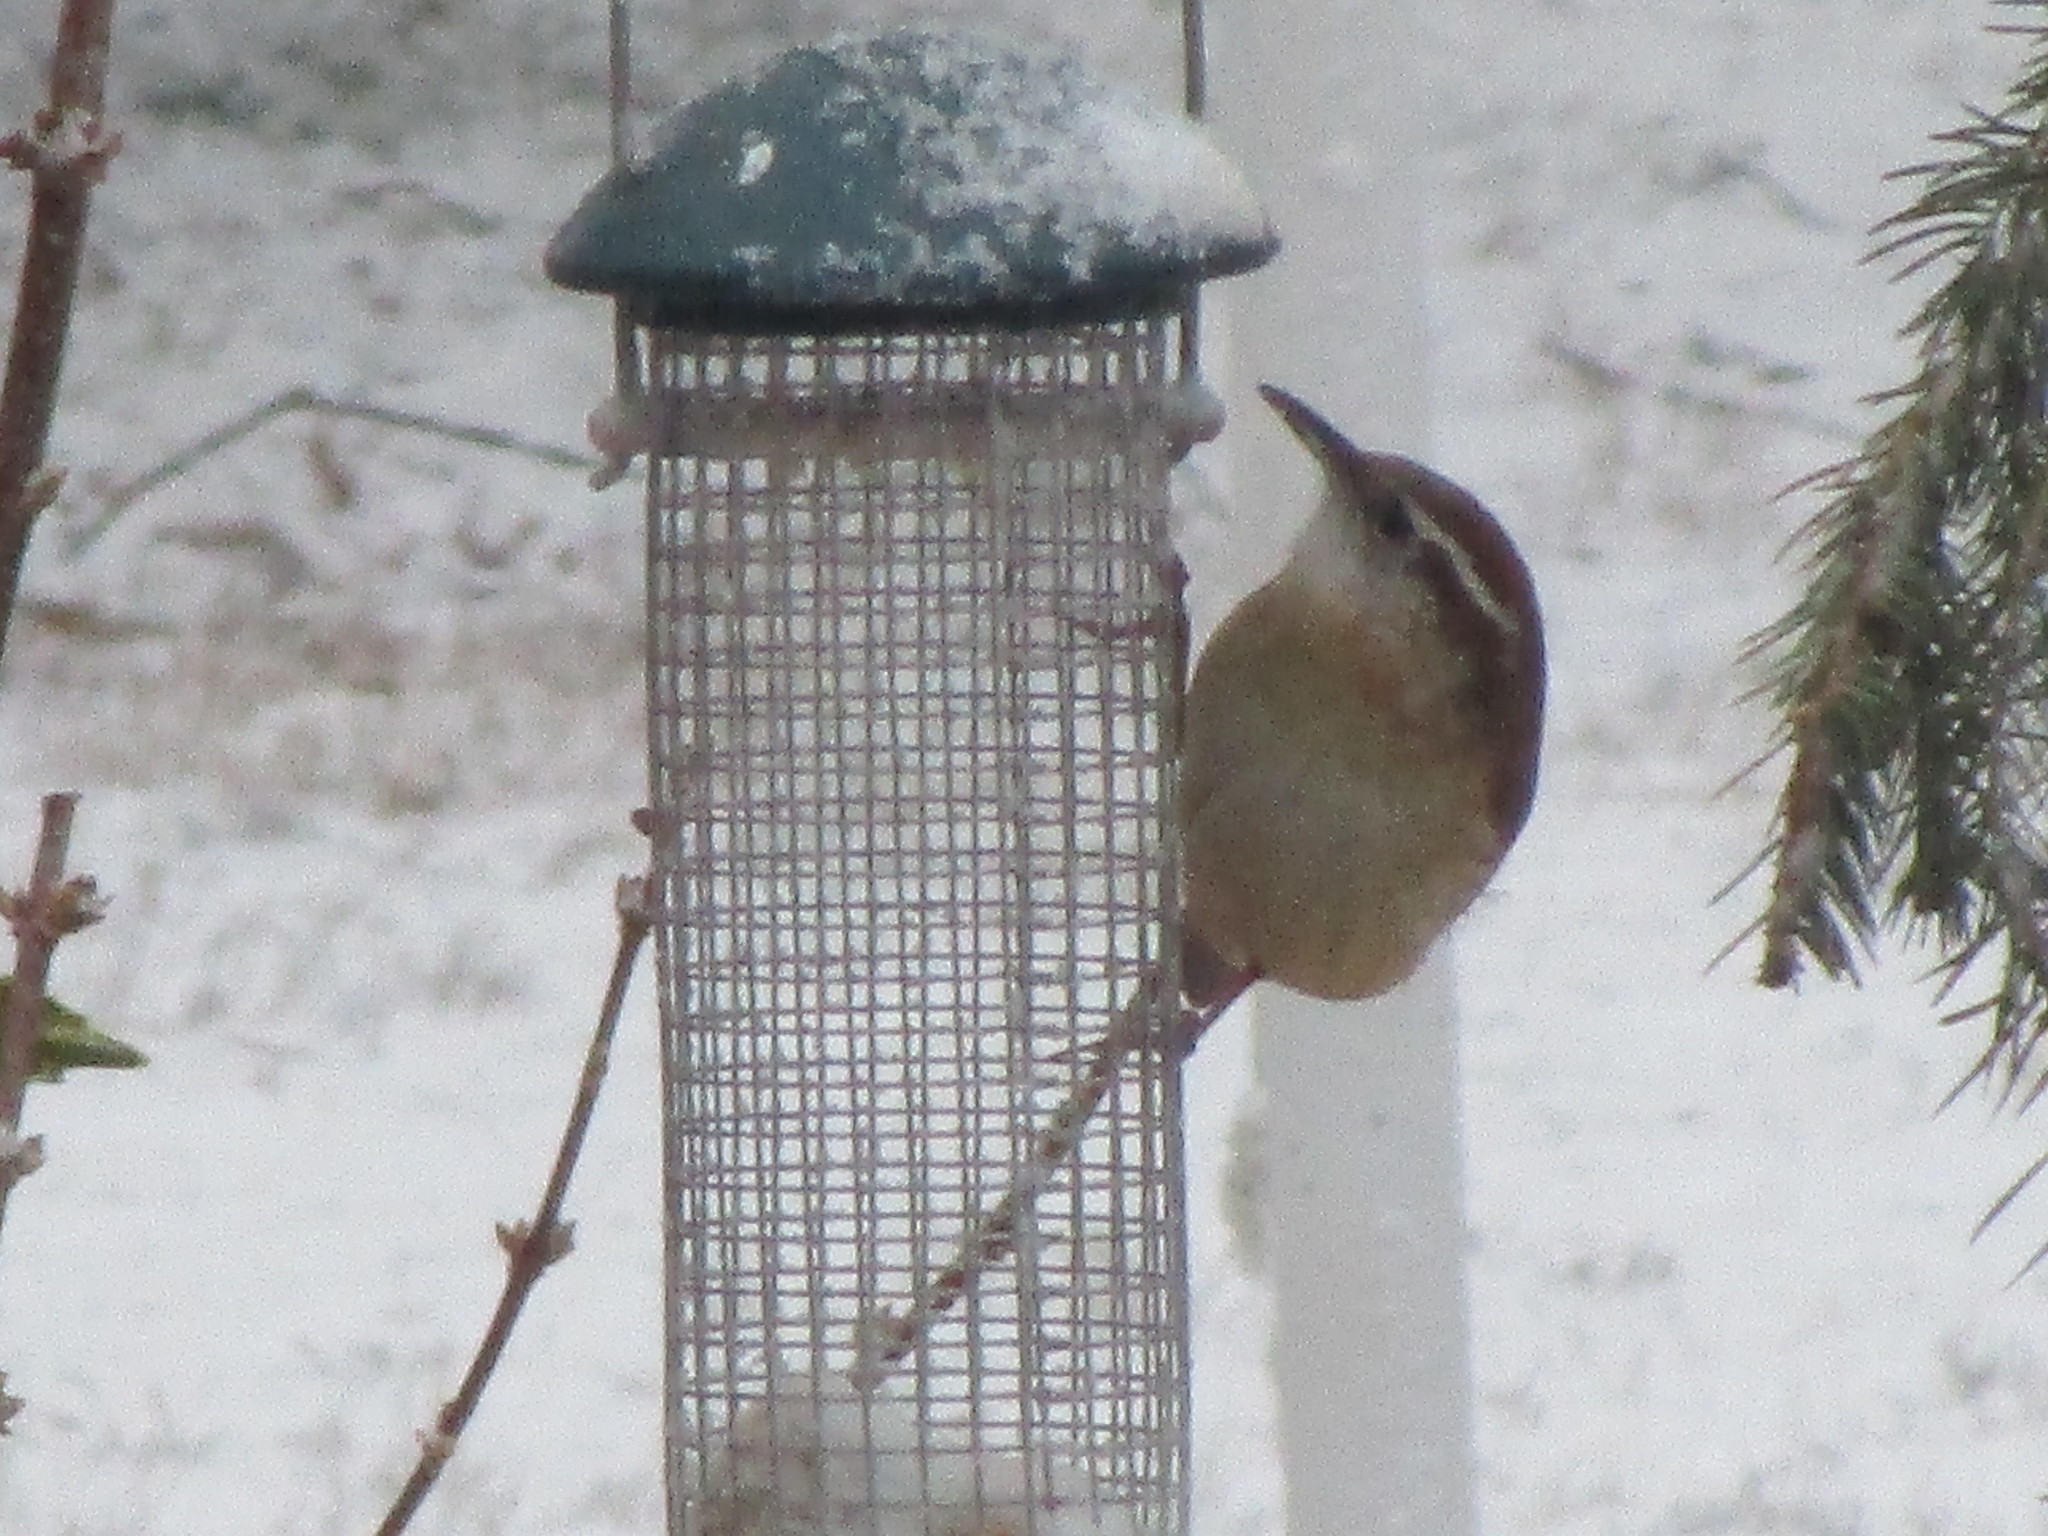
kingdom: Animalia
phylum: Chordata
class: Aves
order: Passeriformes
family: Troglodytidae
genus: Thryothorus
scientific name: Thryothorus ludovicianus
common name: Carolina wren
